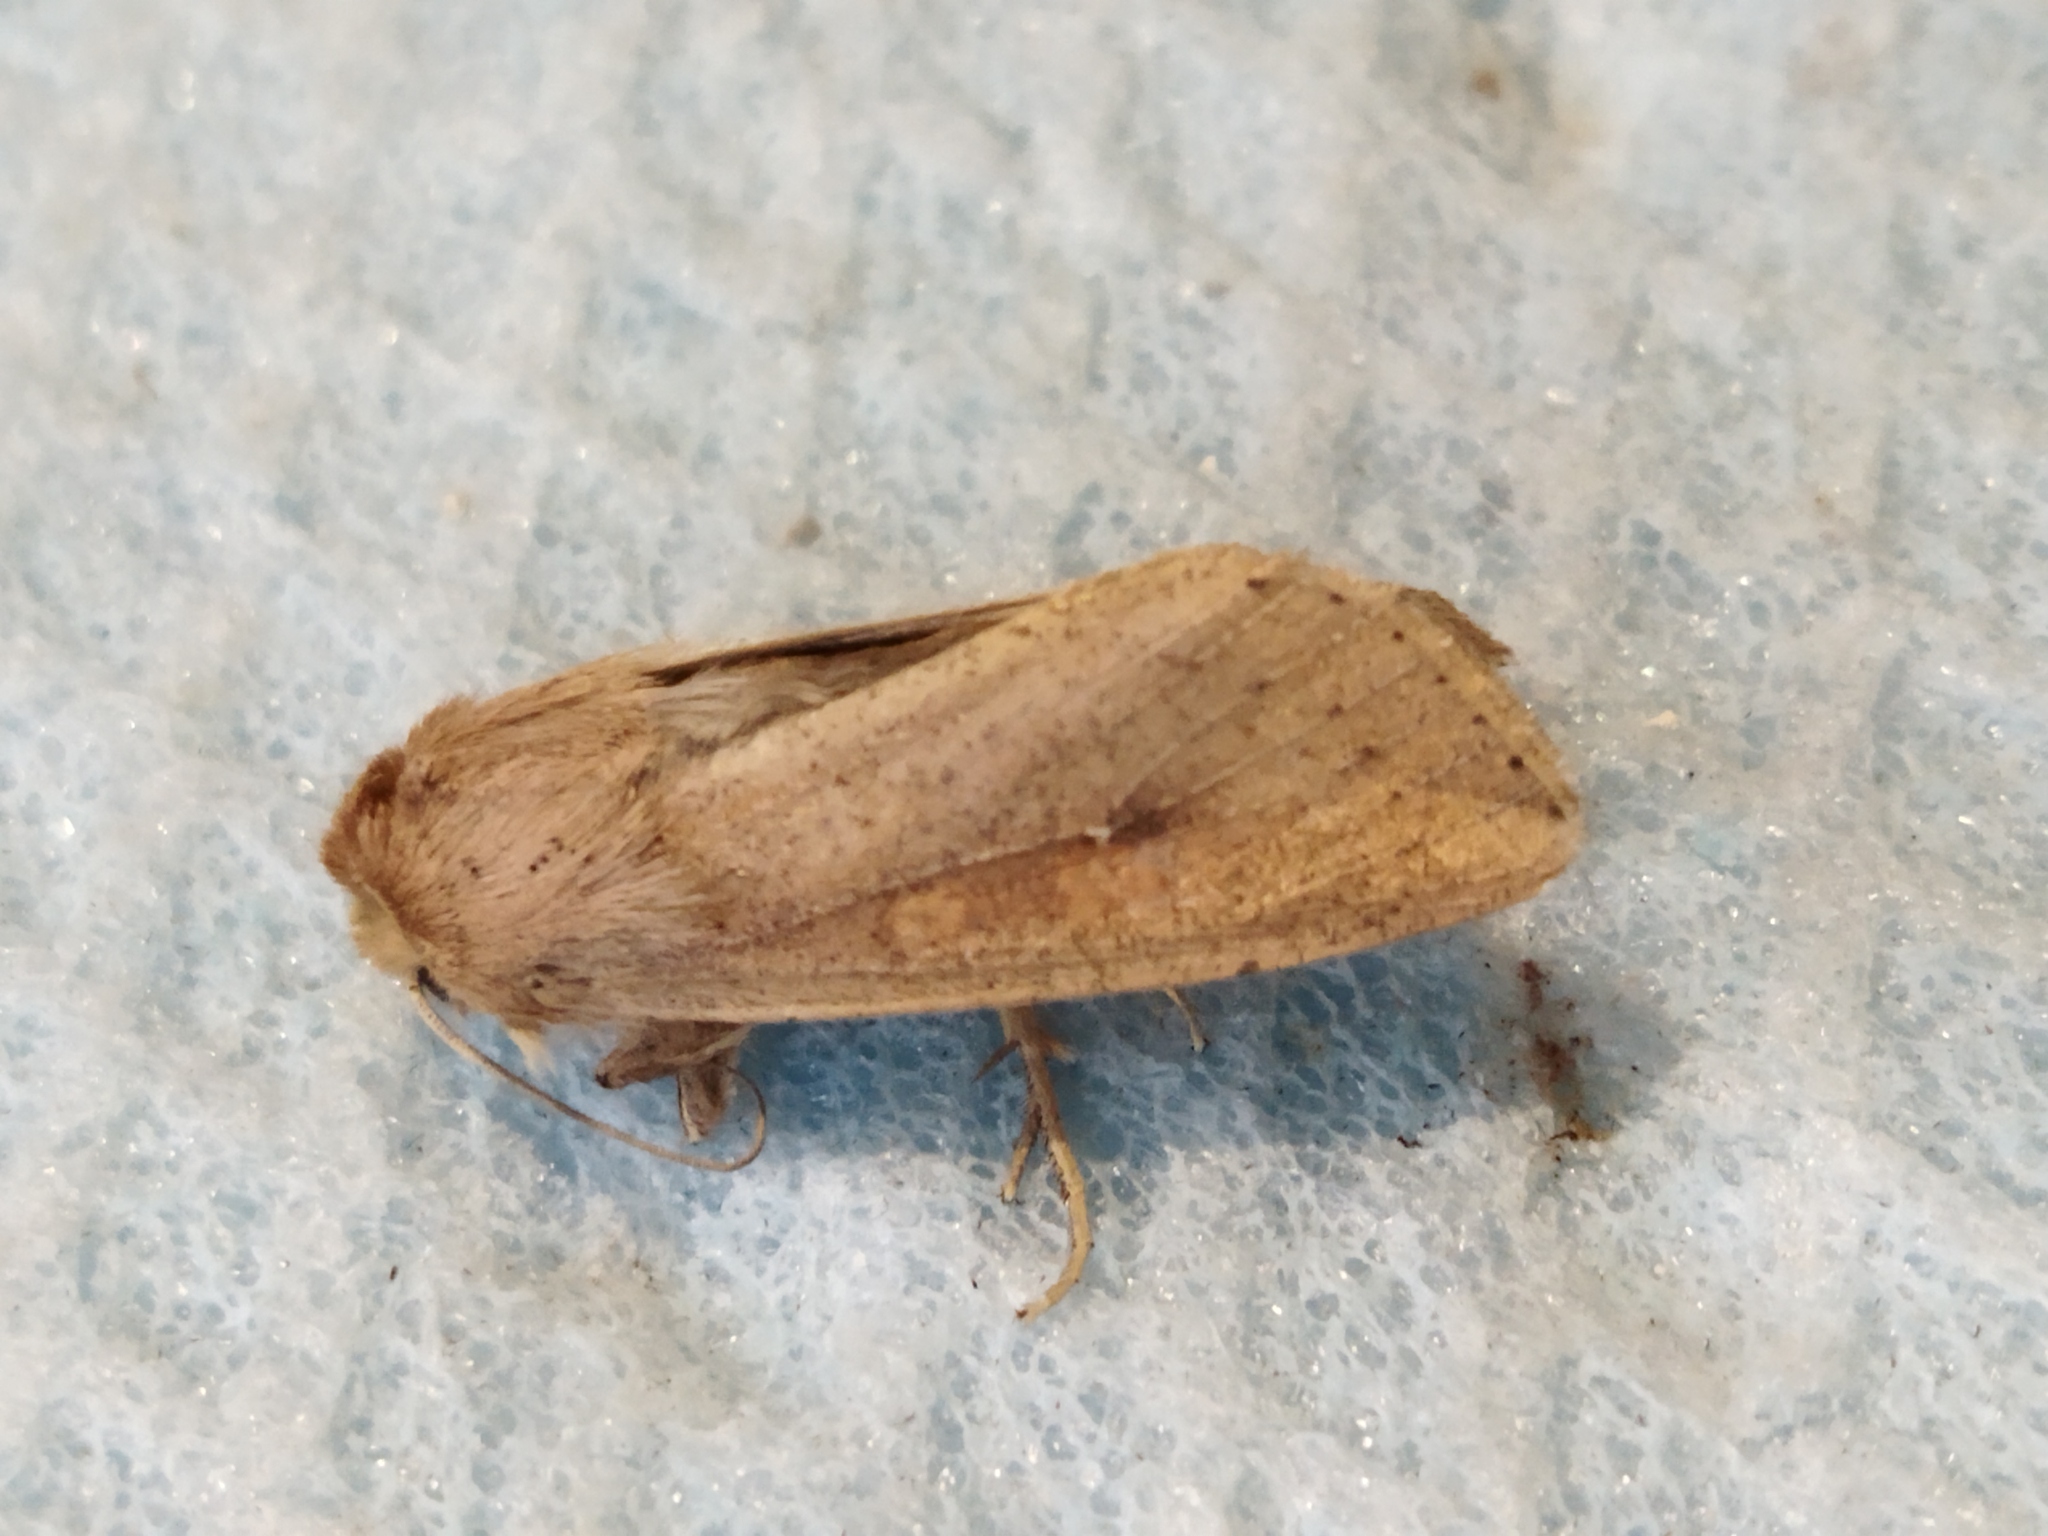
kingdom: Animalia
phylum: Arthropoda
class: Insecta
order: Lepidoptera
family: Noctuidae
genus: Mythimna
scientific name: Mythimna unipuncta
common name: White-speck
